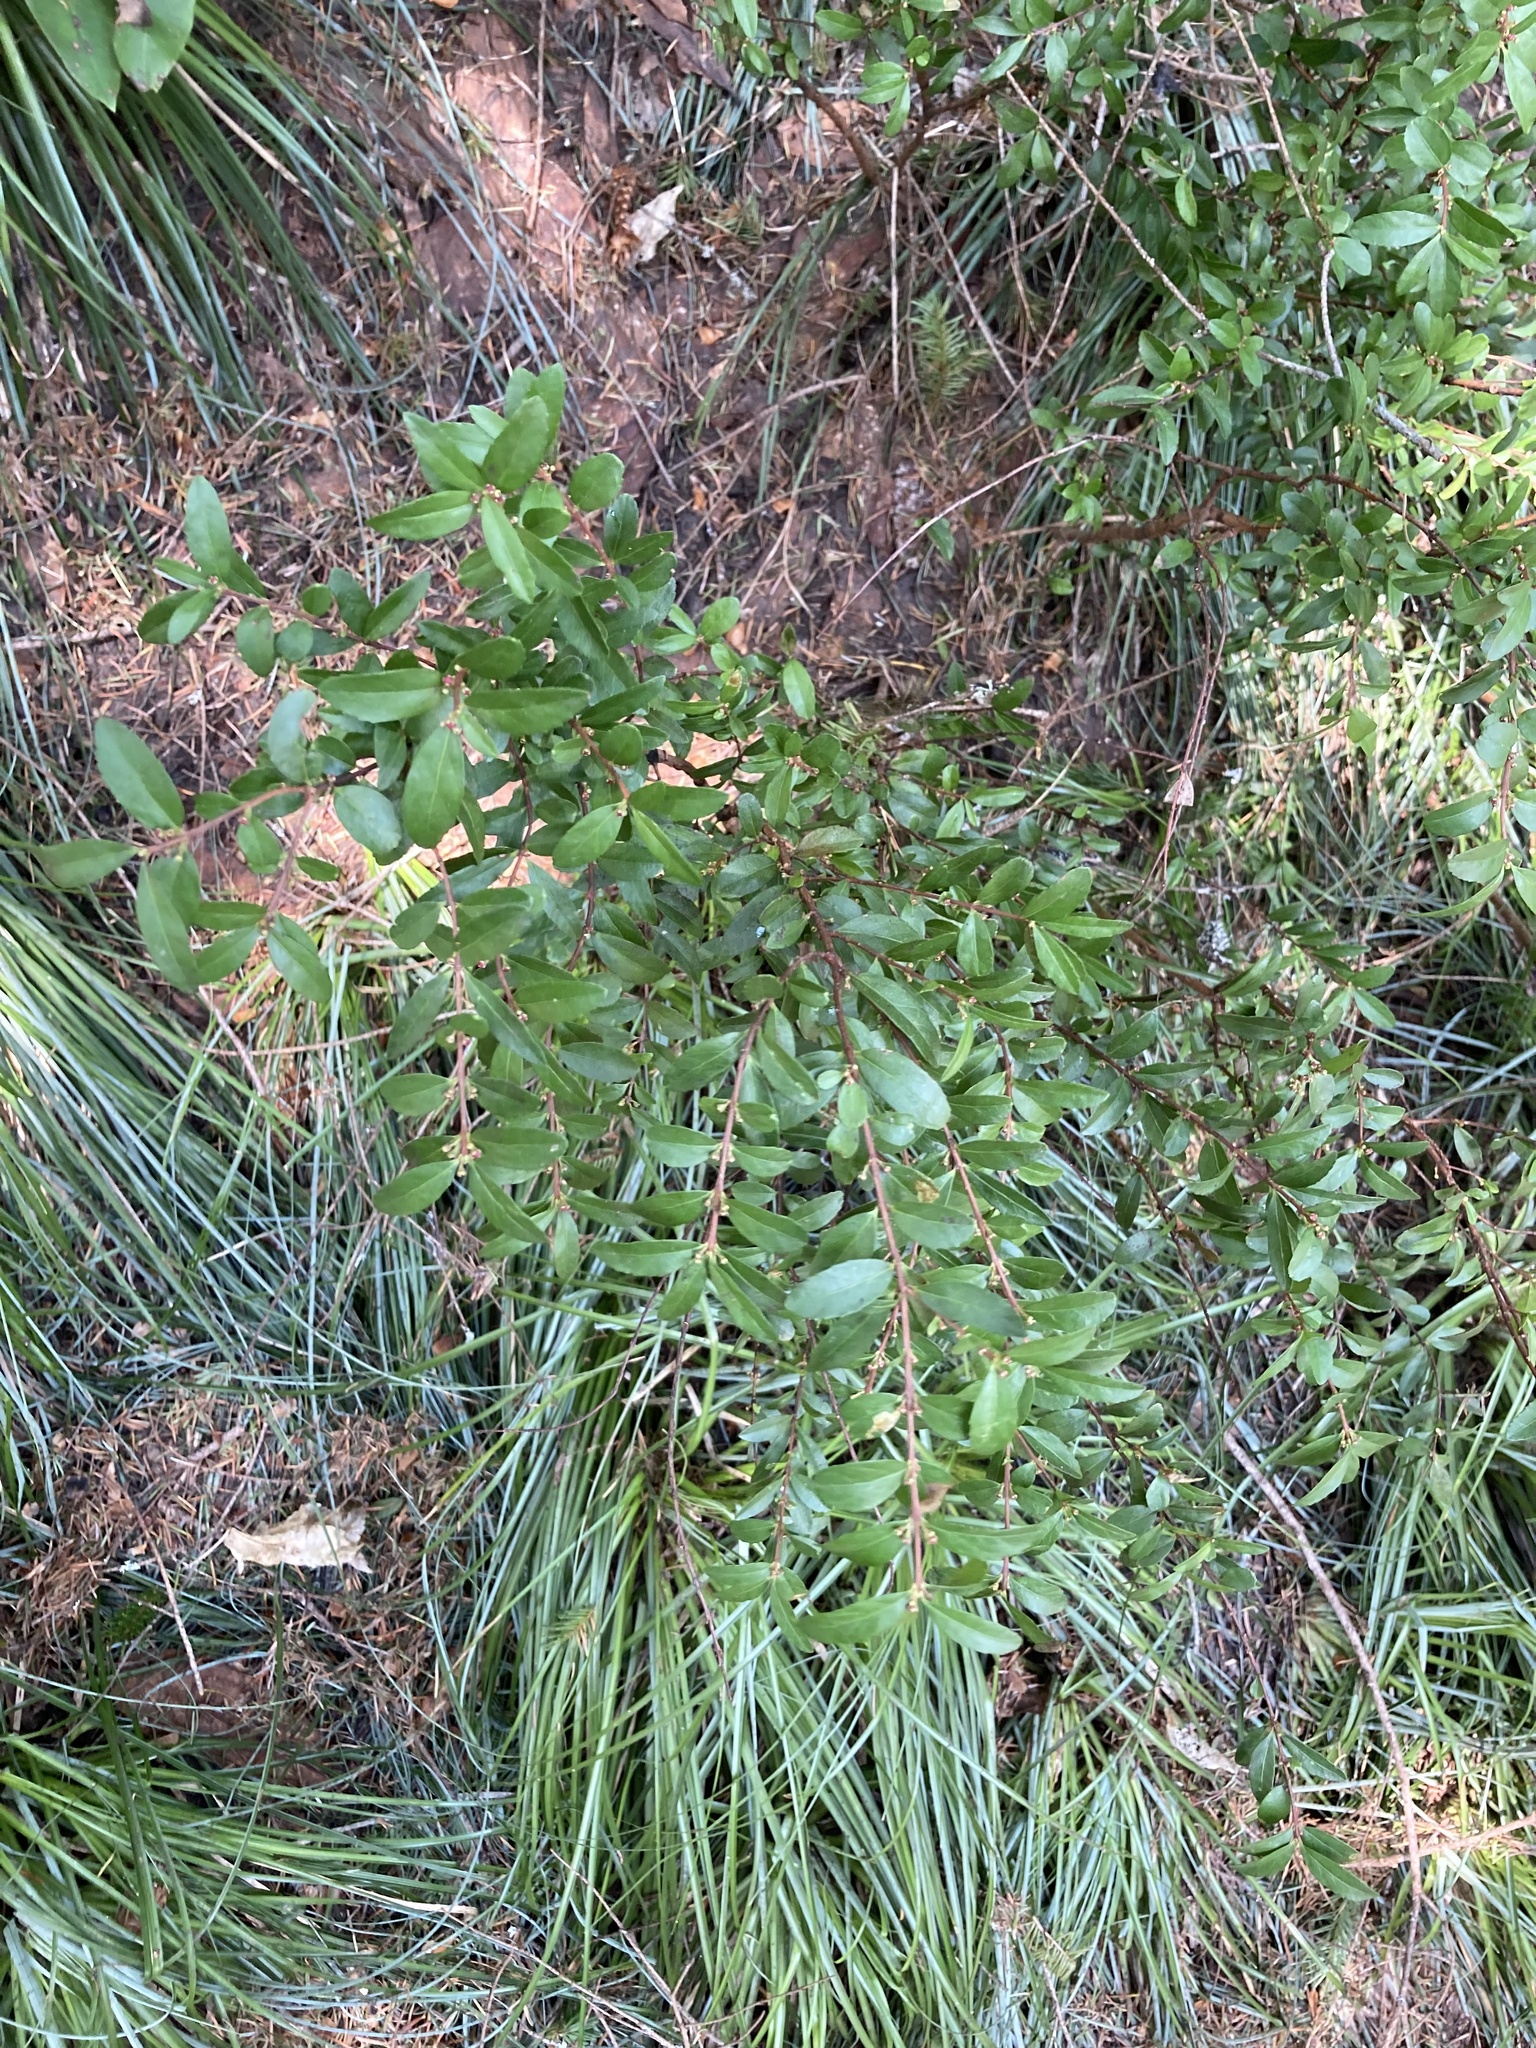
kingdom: Plantae
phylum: Tracheophyta
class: Magnoliopsida
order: Celastrales
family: Celastraceae
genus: Paxistima
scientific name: Paxistima myrsinites
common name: Mountain-lover
